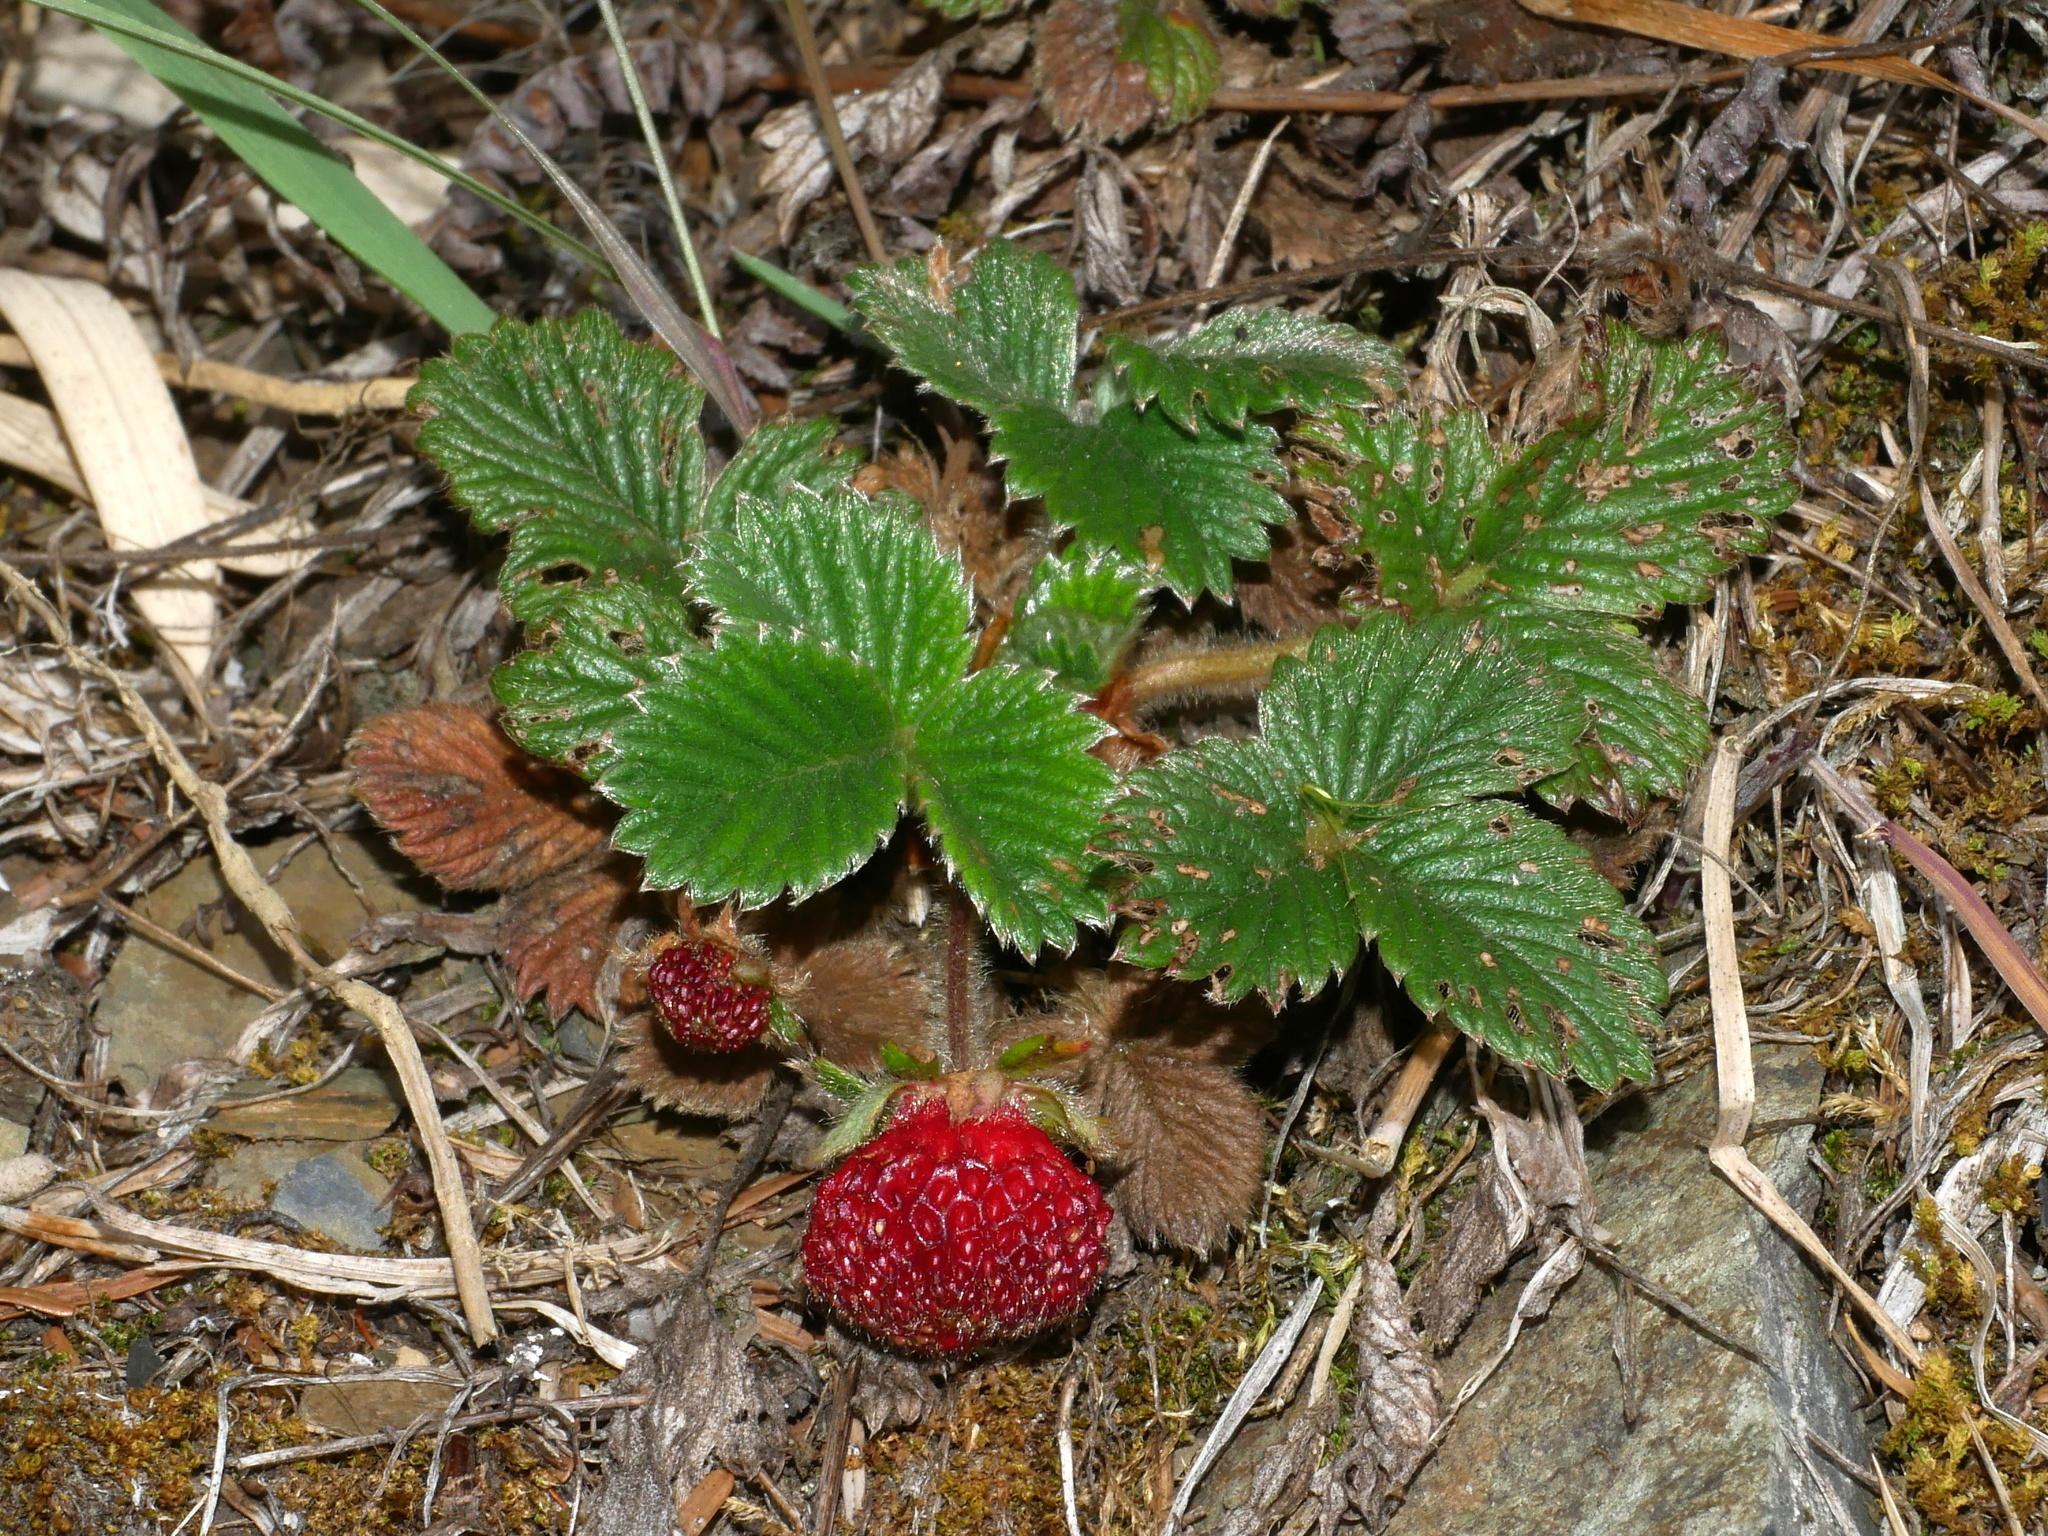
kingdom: Plantae
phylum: Tracheophyta
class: Magnoliopsida
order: Rosales
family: Rosaceae
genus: Fragaria
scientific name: Fragaria nilgerrensis
